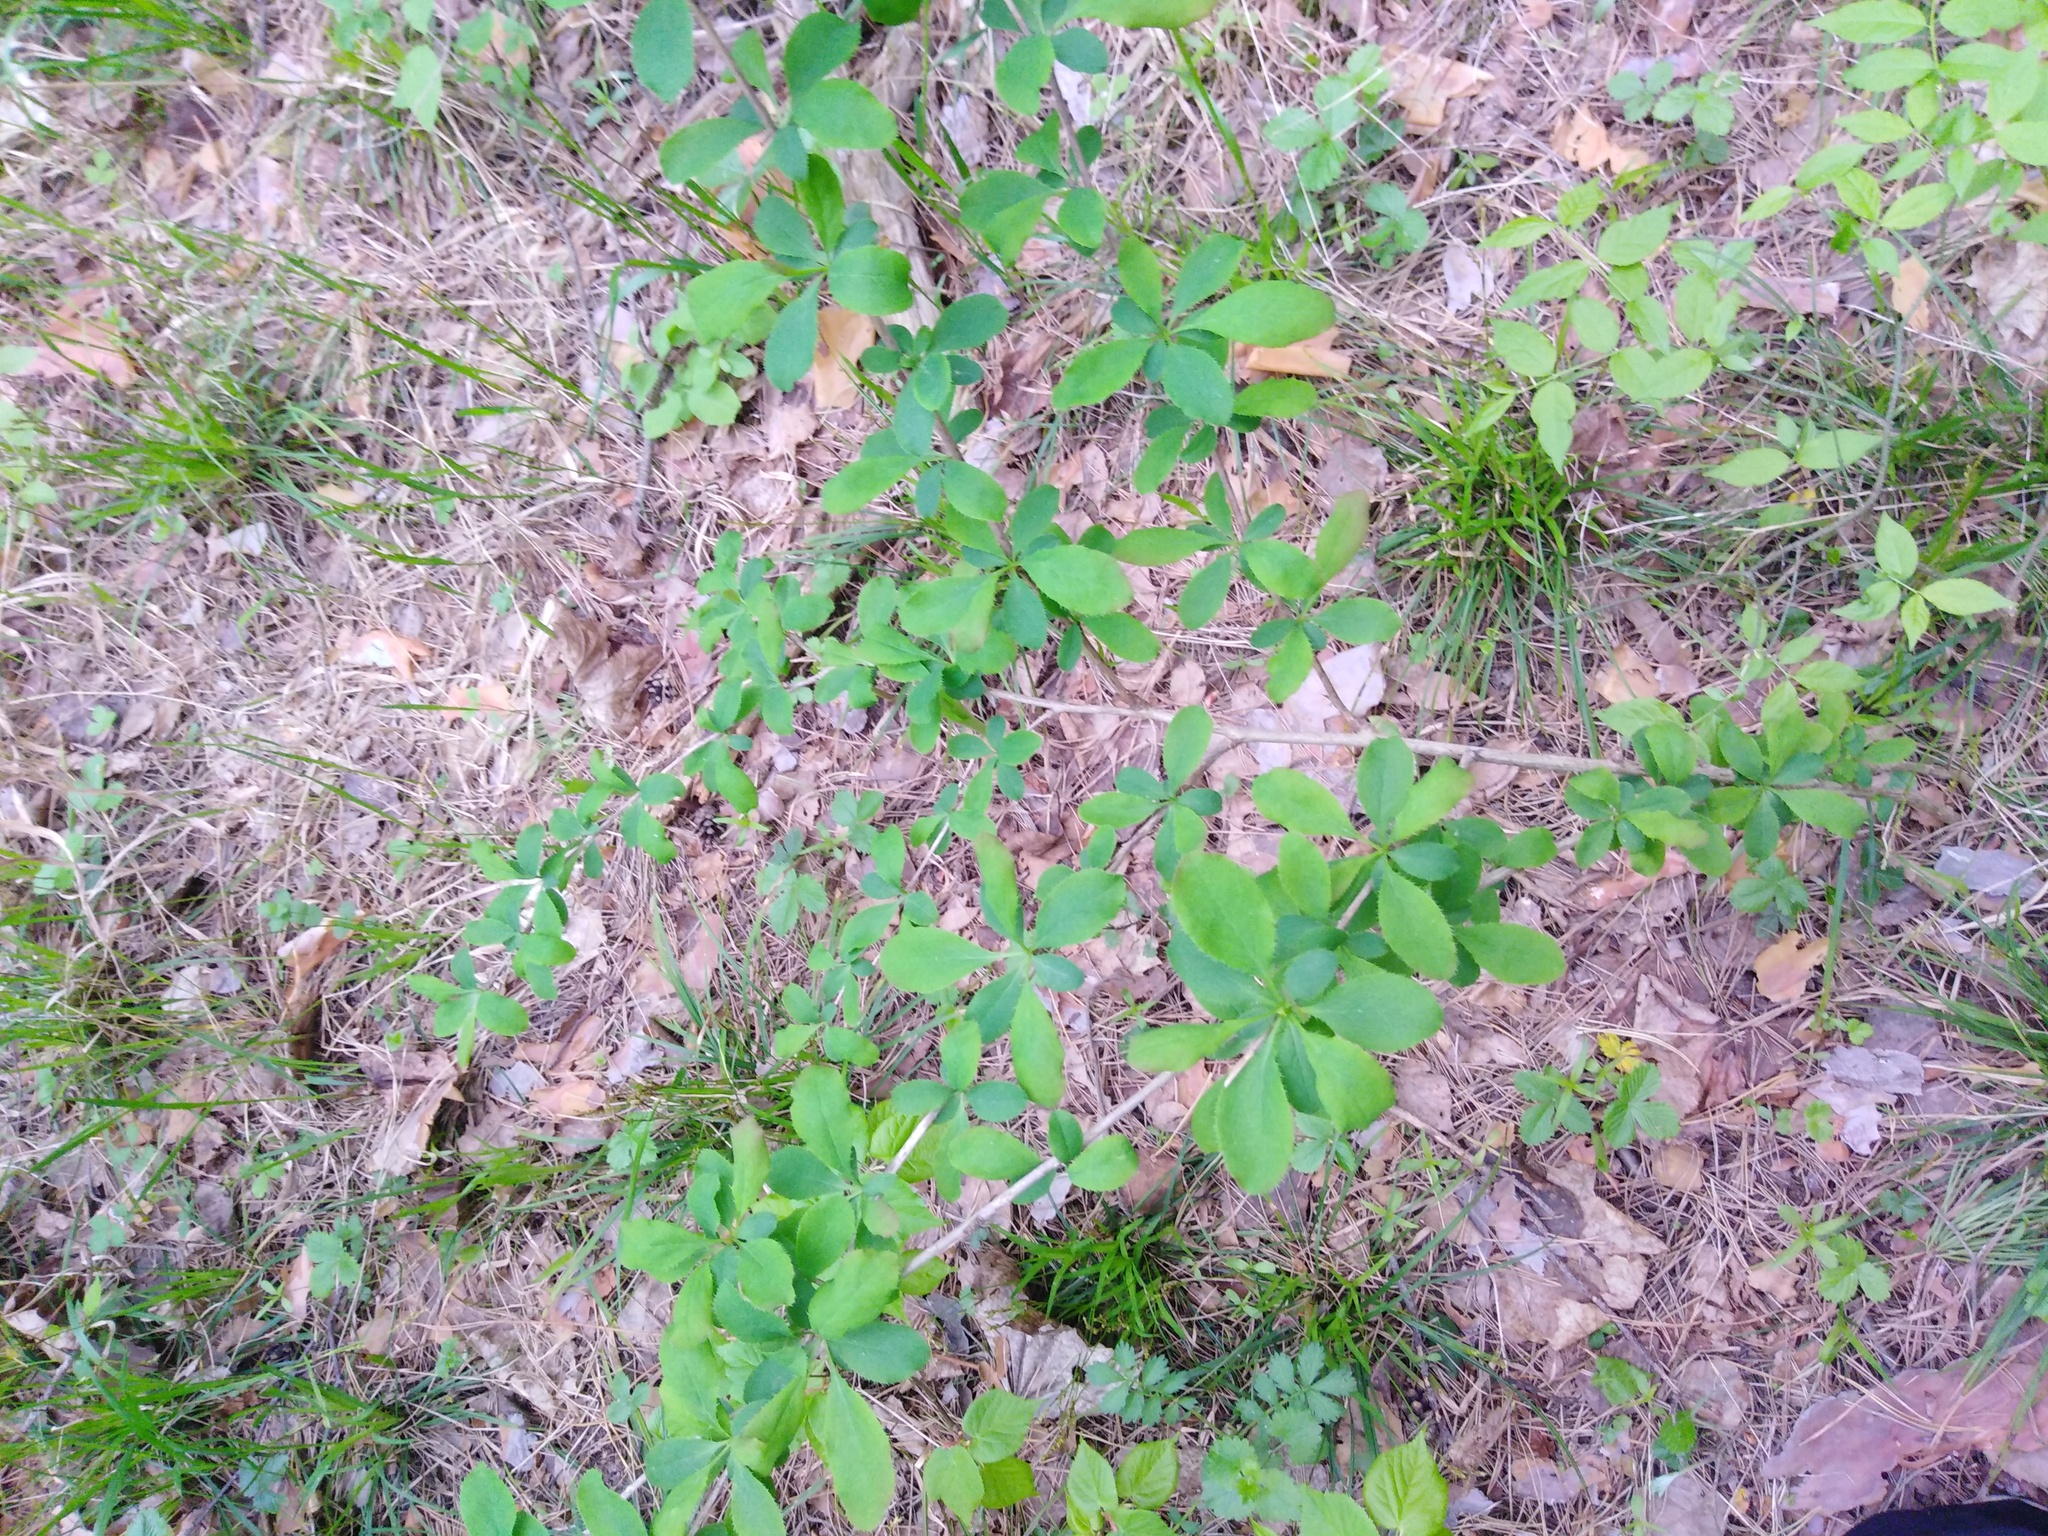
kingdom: Plantae
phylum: Tracheophyta
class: Magnoliopsida
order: Ranunculales
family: Berberidaceae
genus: Berberis
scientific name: Berberis vulgaris
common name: Barberry
